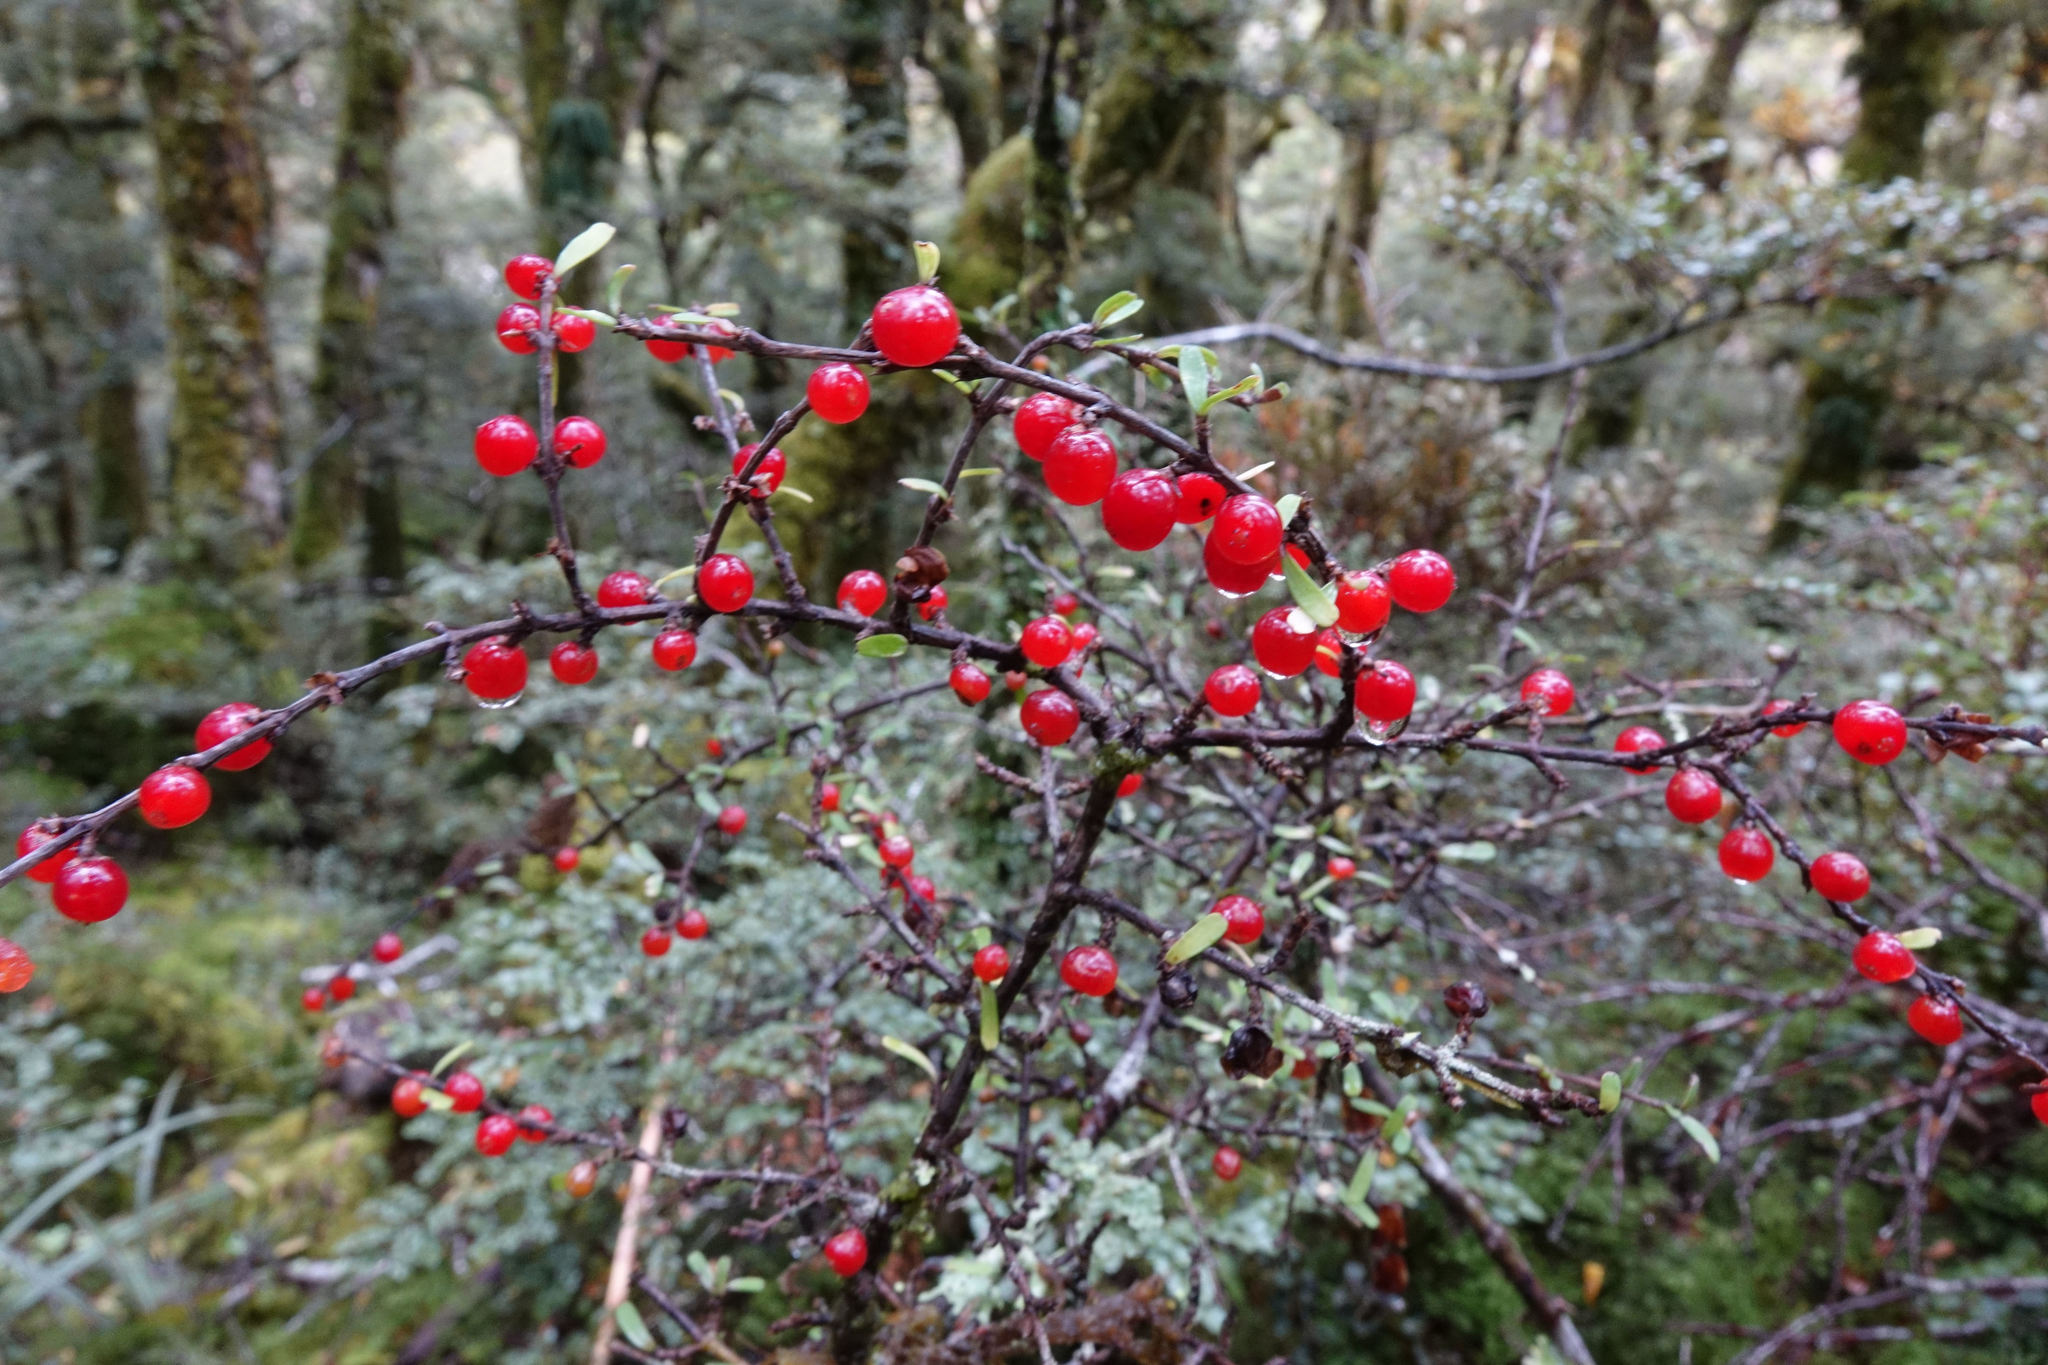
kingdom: Plantae
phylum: Tracheophyta
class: Magnoliopsida
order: Gentianales
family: Rubiaceae
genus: Coprosma
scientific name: Coprosma cuneata
